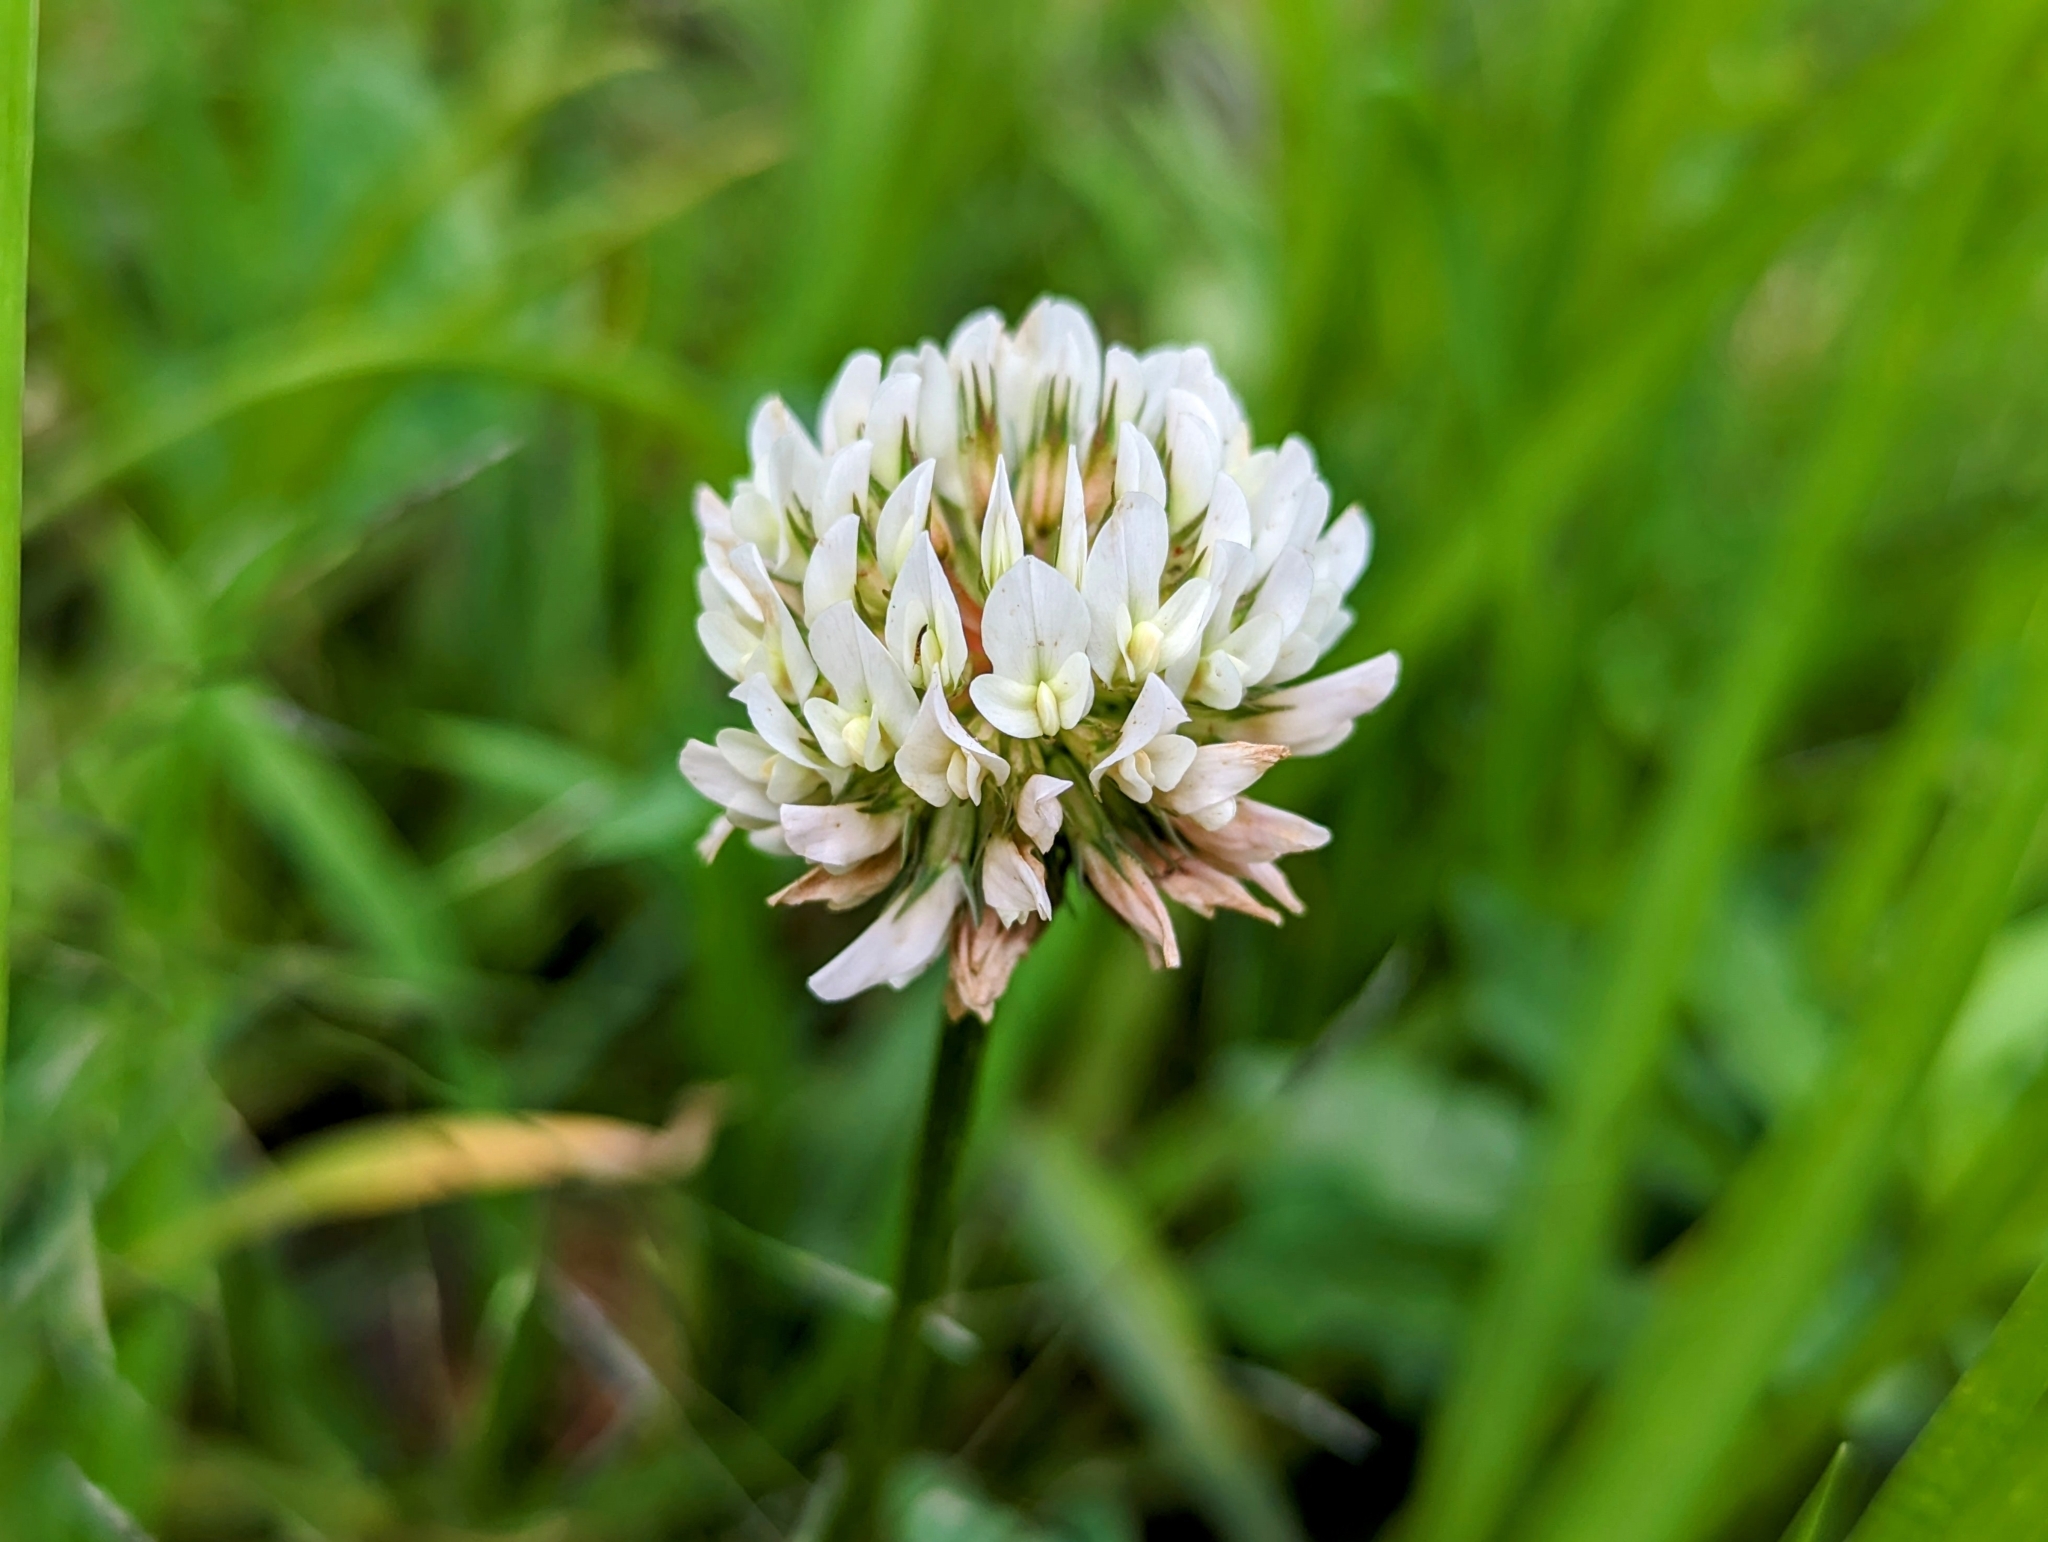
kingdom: Plantae
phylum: Tracheophyta
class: Magnoliopsida
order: Fabales
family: Fabaceae
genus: Trifolium
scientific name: Trifolium repens
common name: White clover
